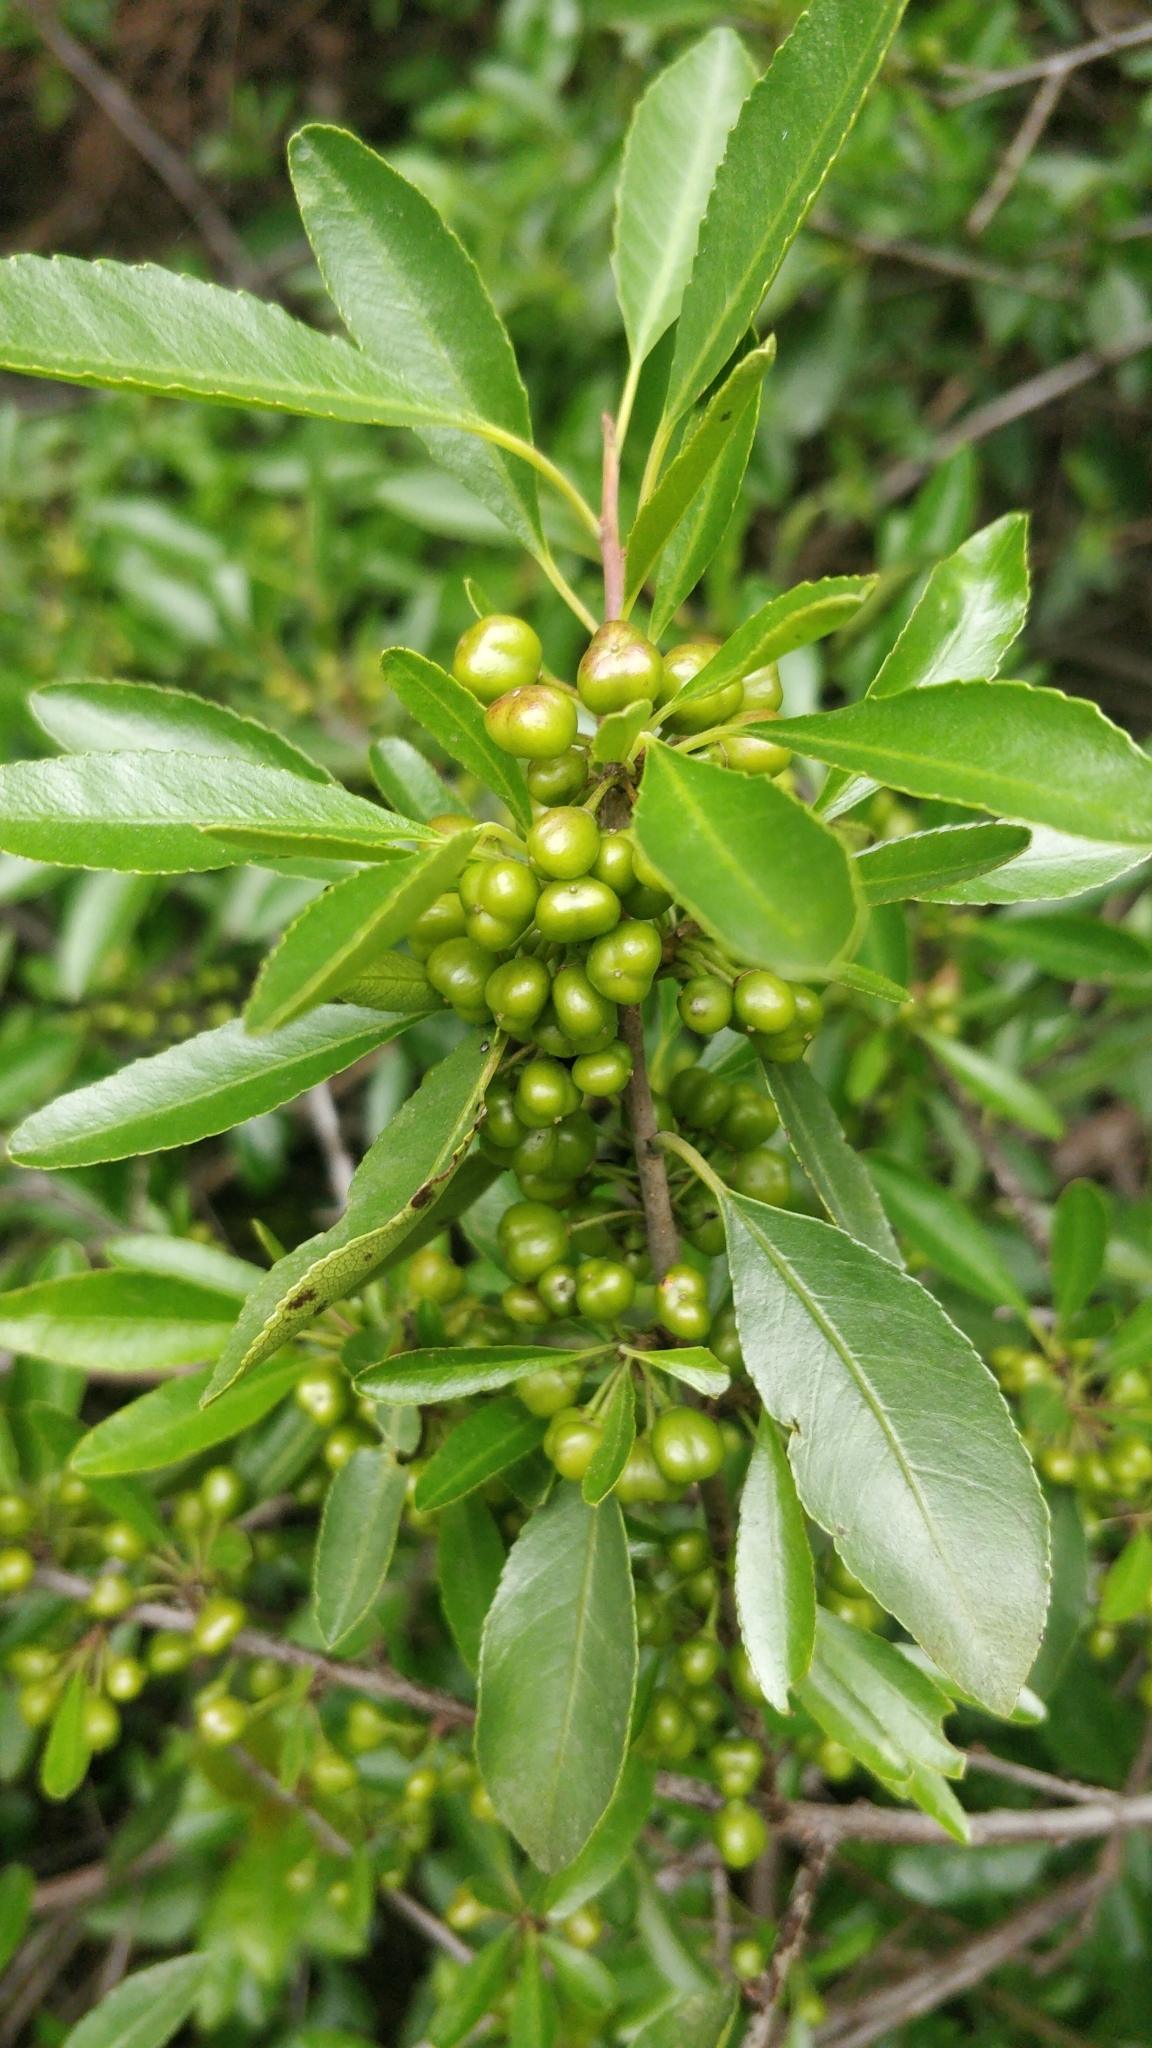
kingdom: Plantae
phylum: Tracheophyta
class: Magnoliopsida
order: Celastrales
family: Celastraceae
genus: Gymnosporia
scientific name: Gymnosporia cassinoides
